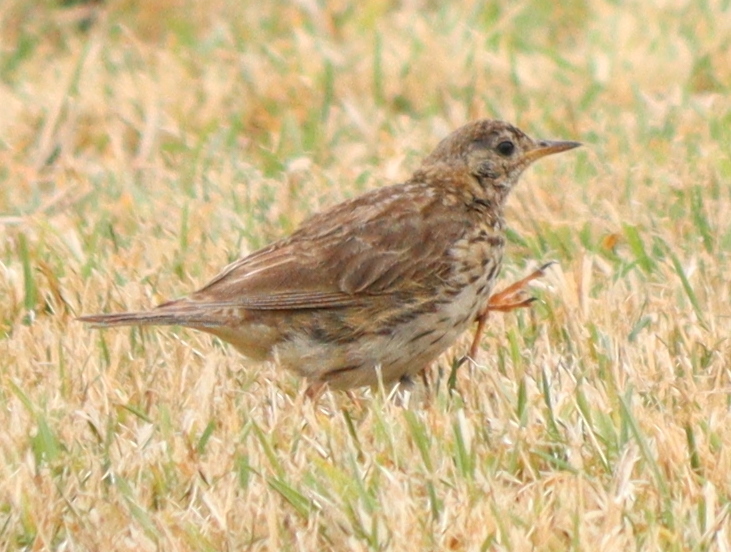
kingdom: Animalia
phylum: Chordata
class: Aves
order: Passeriformes
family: Motacillidae
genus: Anthus
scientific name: Anthus pratensis
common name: Meadow pipit
